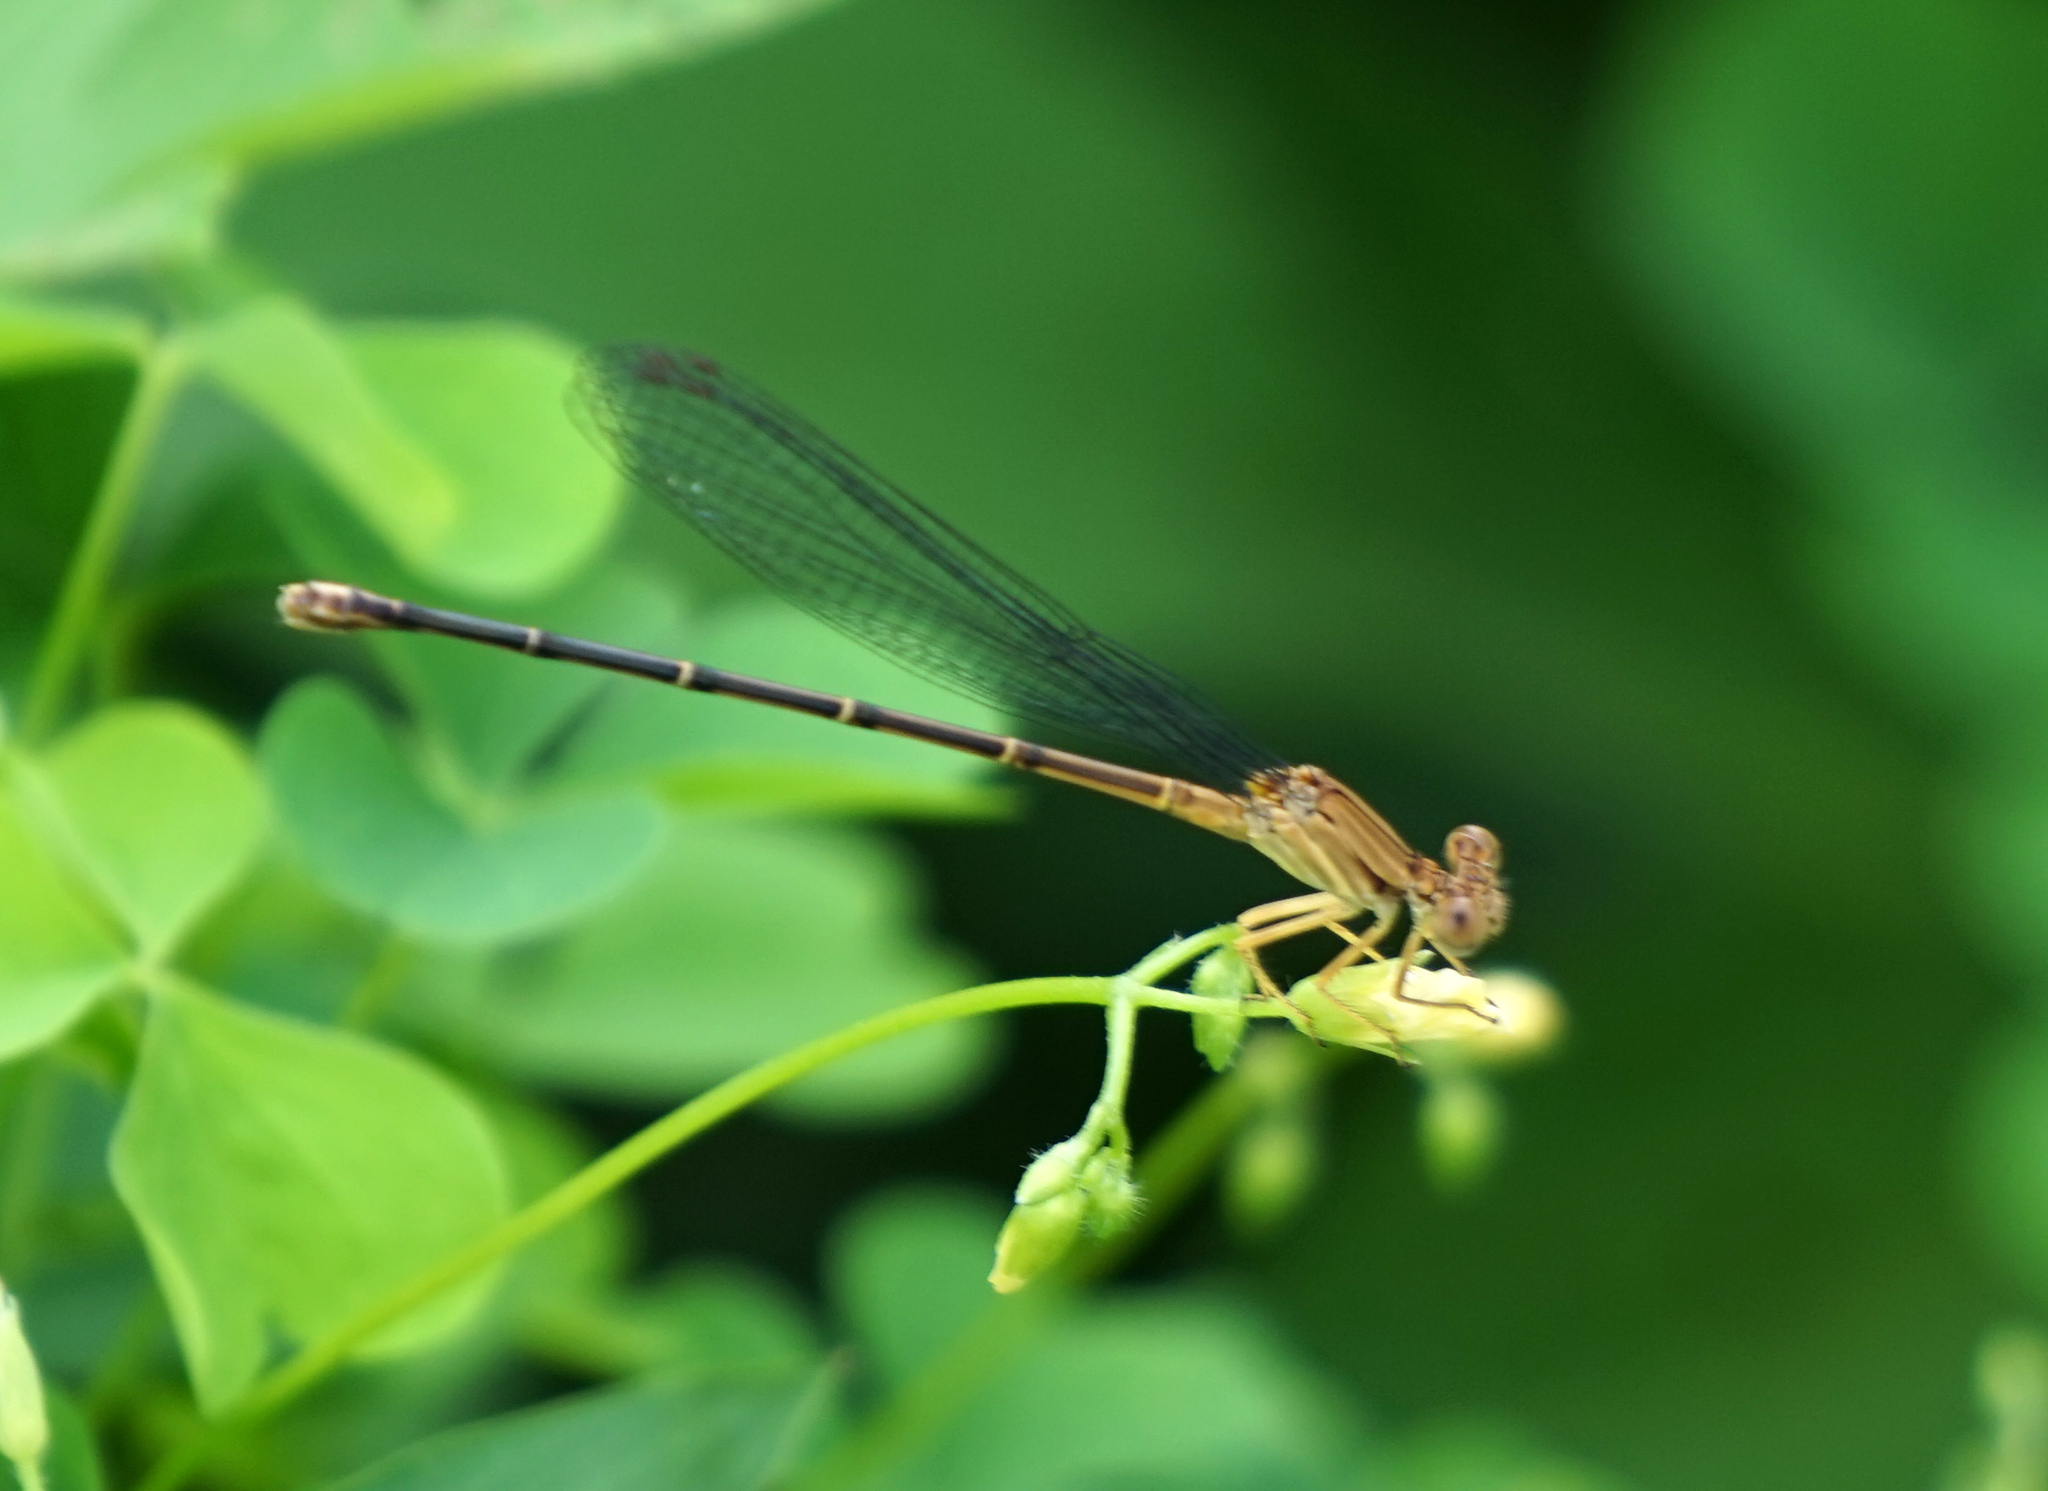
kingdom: Animalia
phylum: Arthropoda
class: Insecta
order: Odonata
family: Coenagrionidae
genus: Argia
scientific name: Argia apicalis
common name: Blue-fronted dancer
